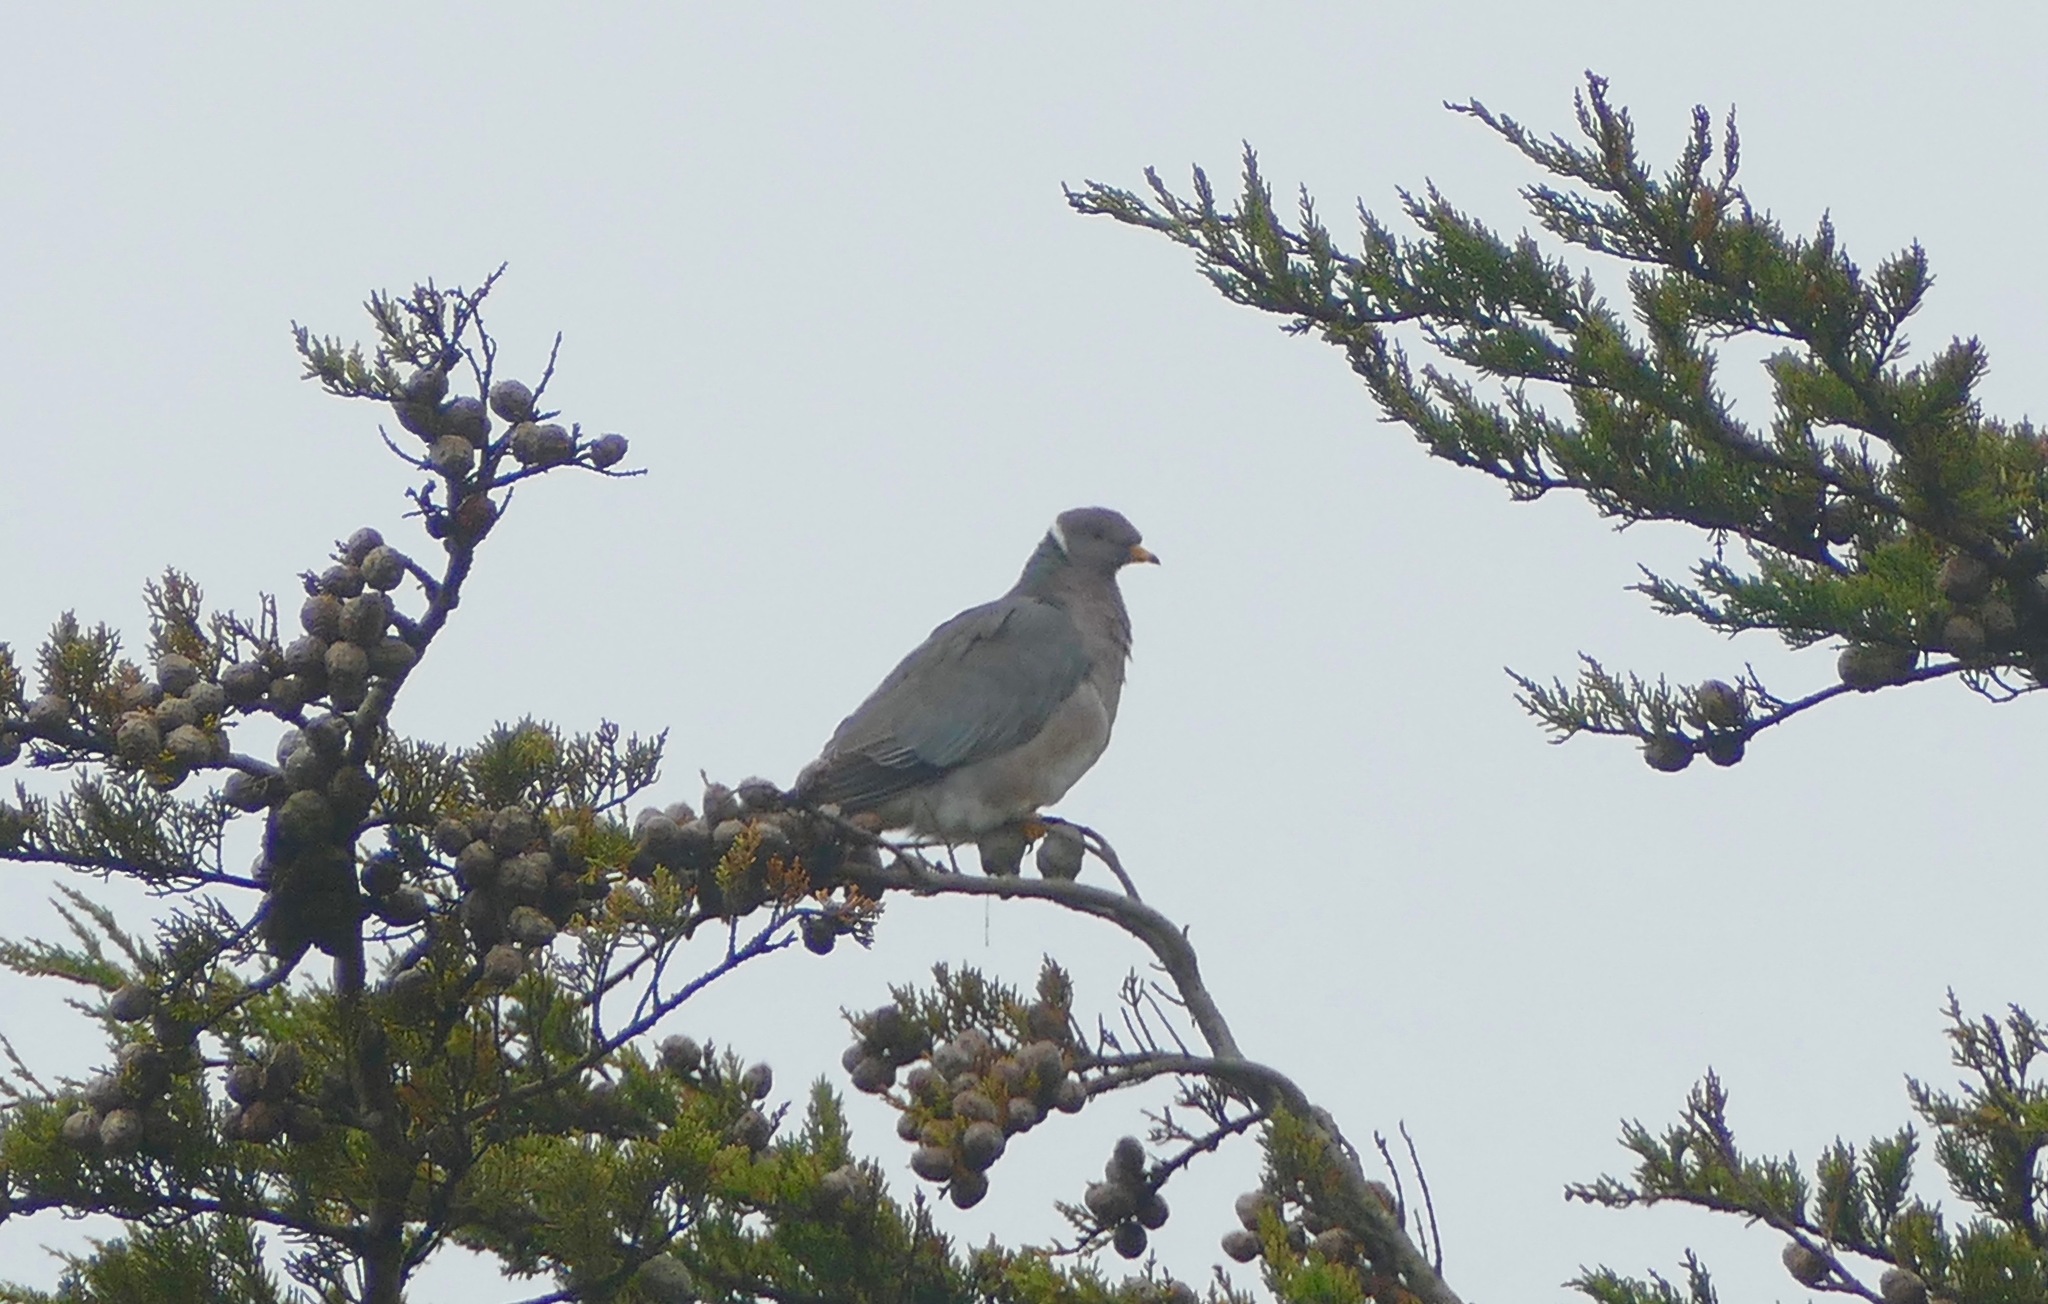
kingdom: Animalia
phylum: Chordata
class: Aves
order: Columbiformes
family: Columbidae
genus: Patagioenas
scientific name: Patagioenas fasciata
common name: Band-tailed pigeon
